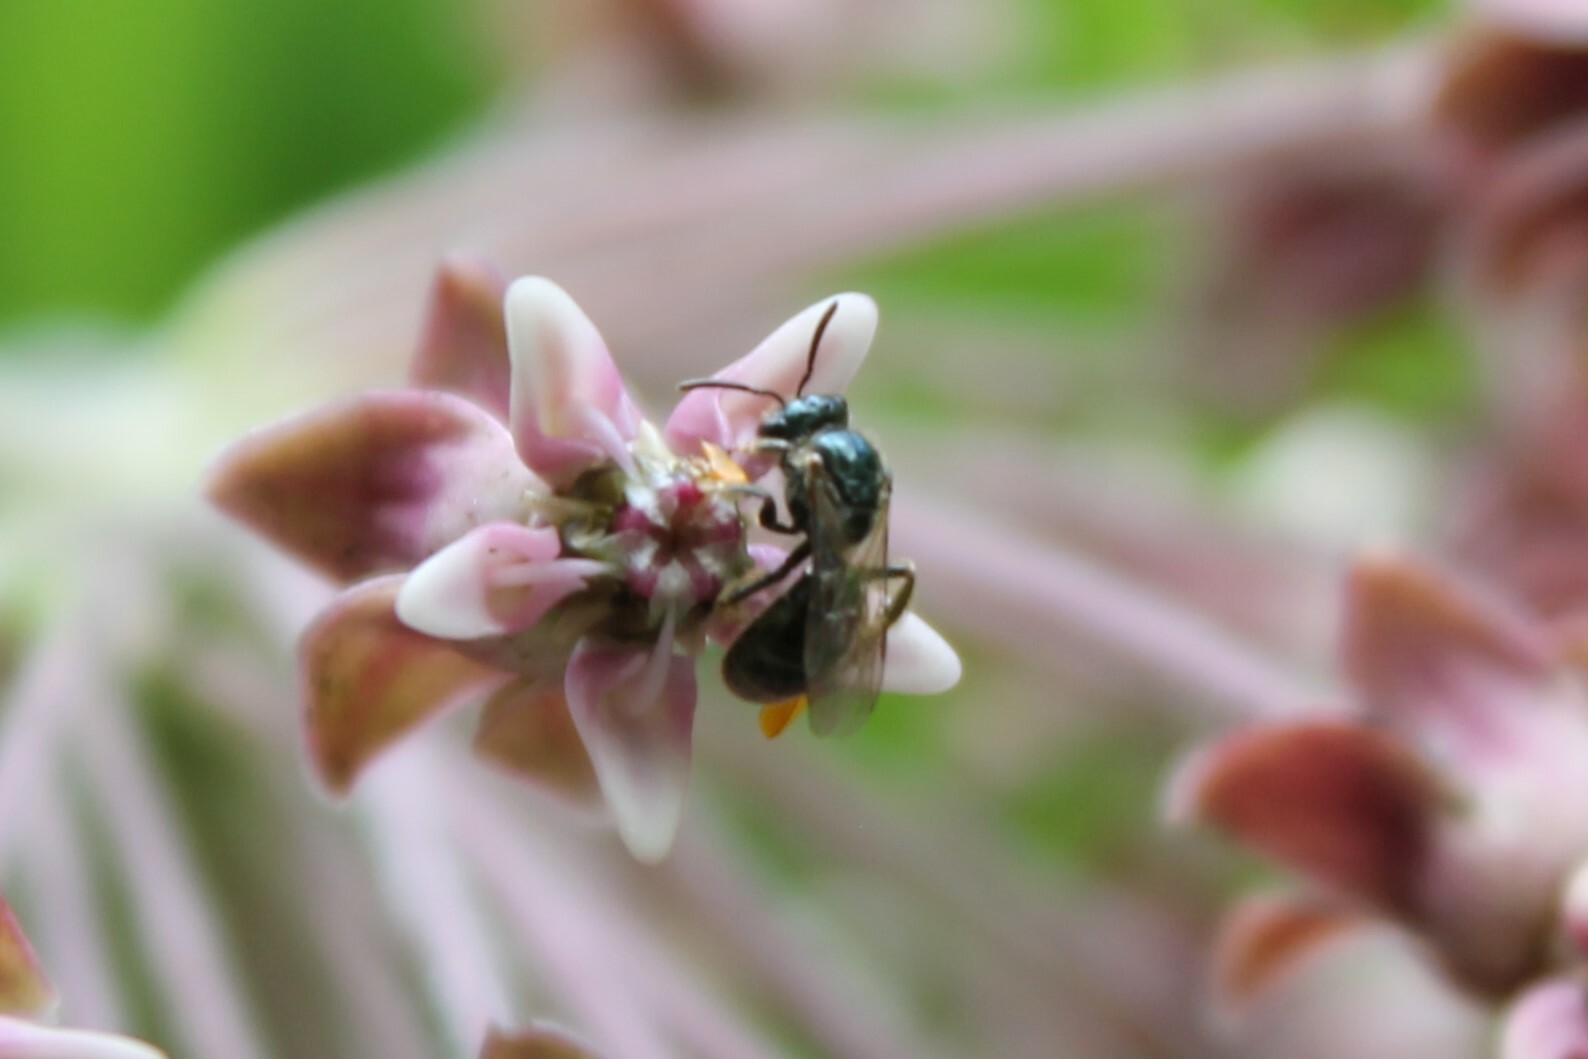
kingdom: Animalia
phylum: Arthropoda
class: Insecta
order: Hymenoptera
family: Halictidae
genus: Dialictus
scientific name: Dialictus
